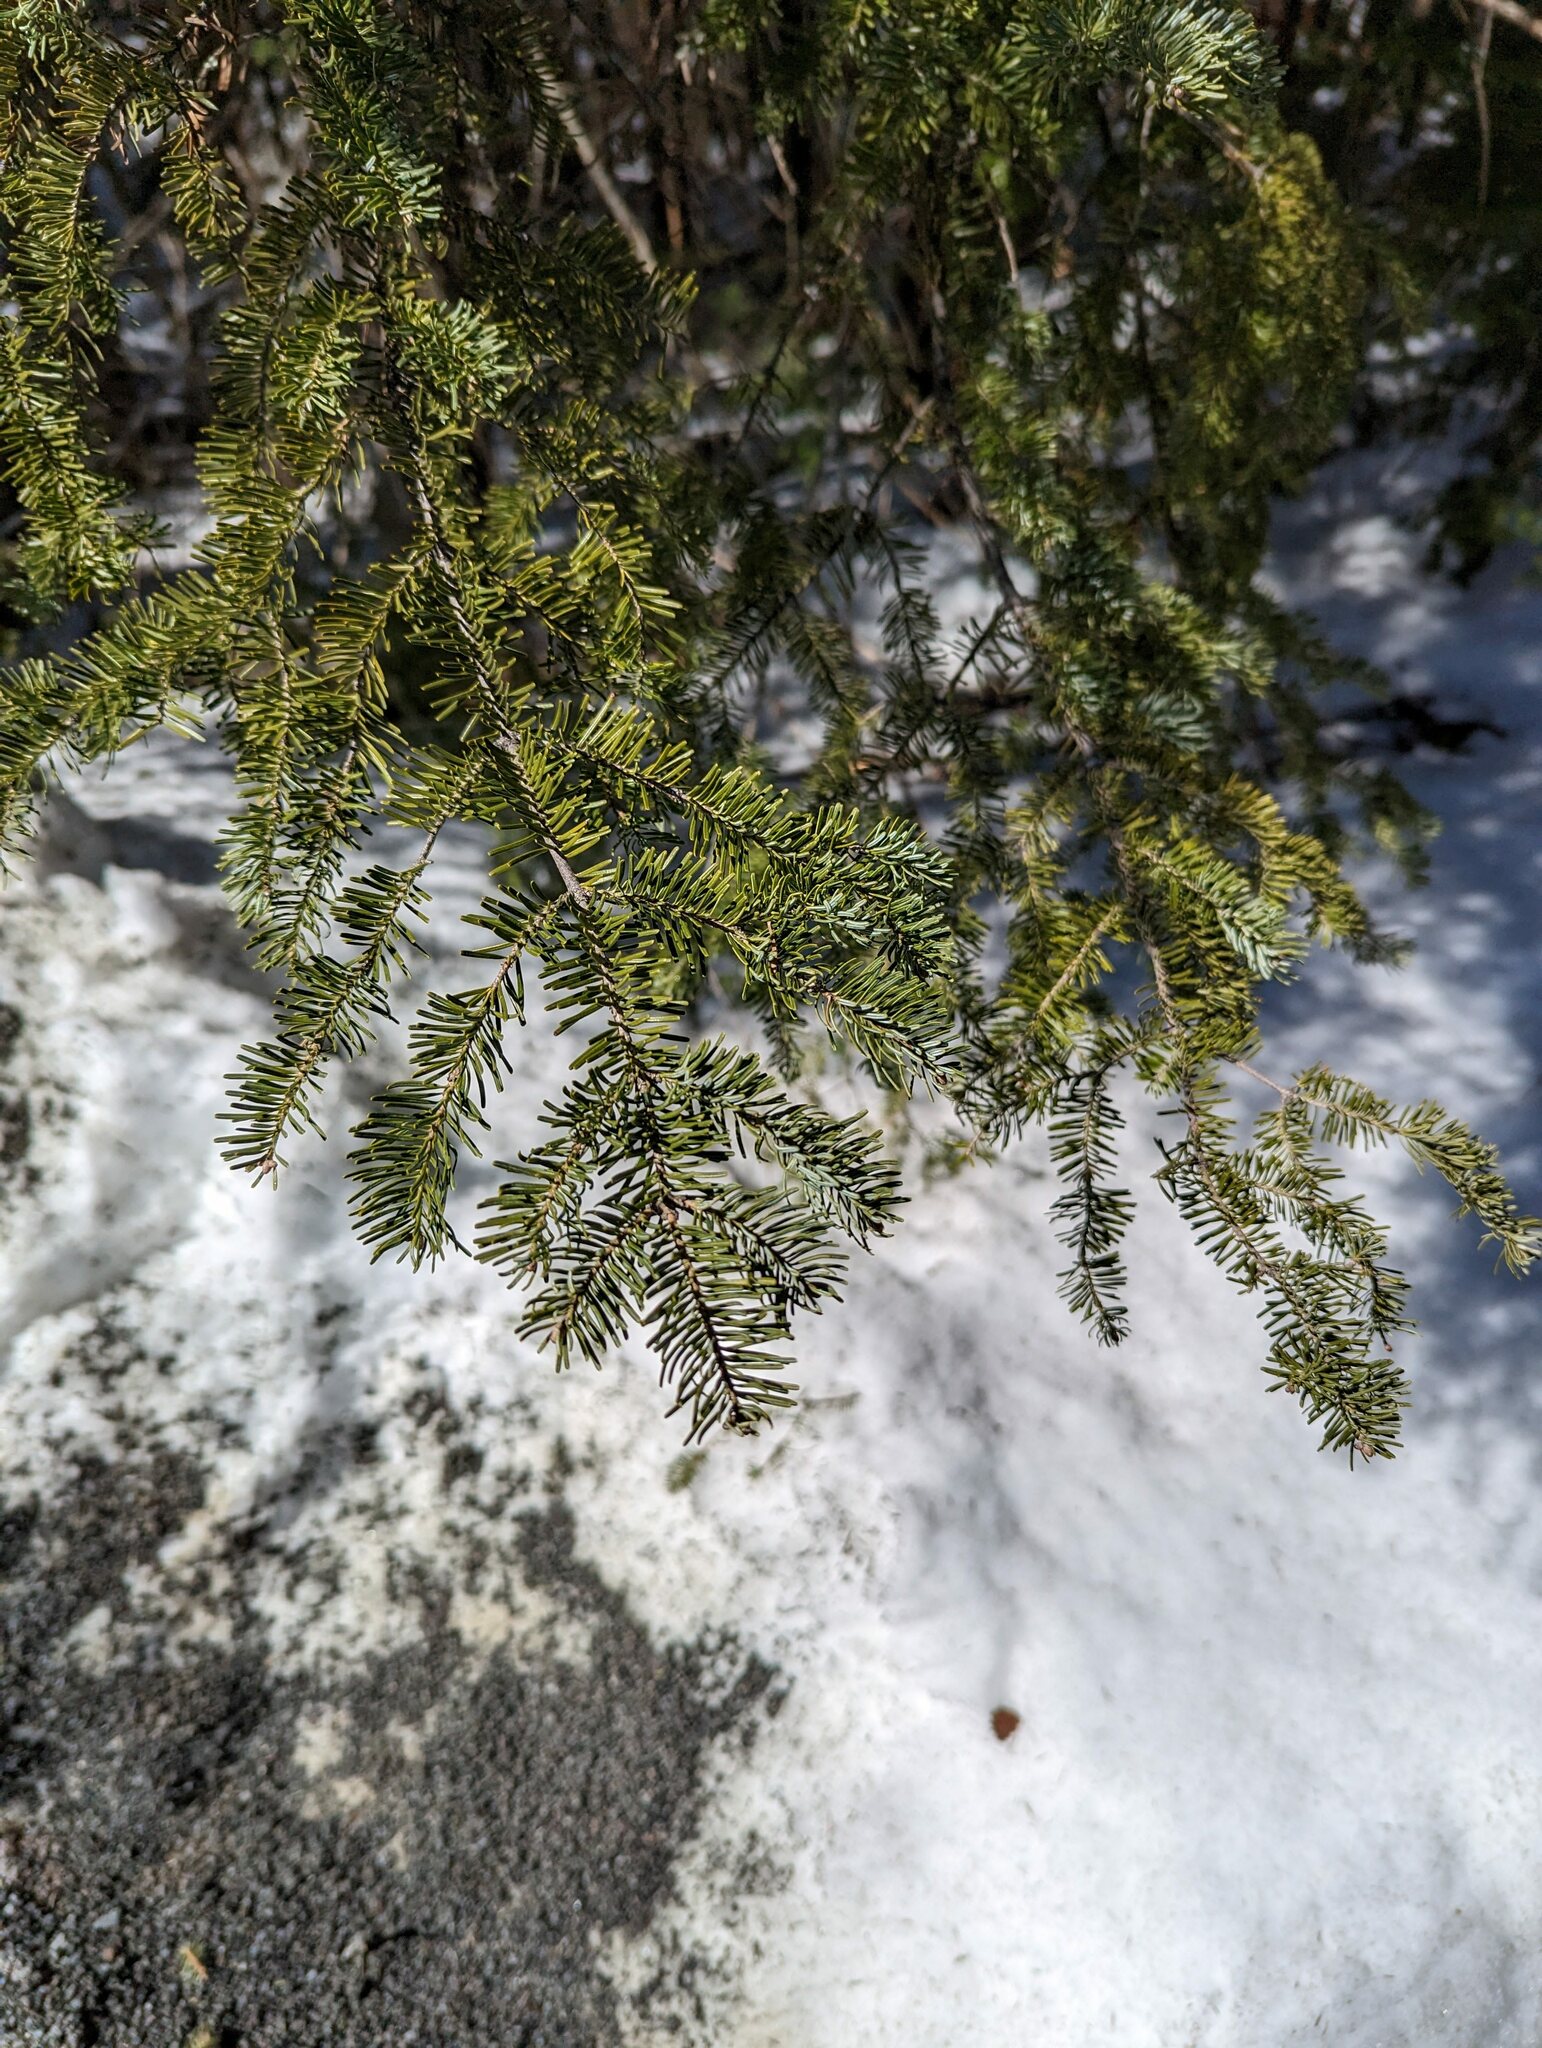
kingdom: Plantae
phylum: Tracheophyta
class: Pinopsida
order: Pinales
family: Pinaceae
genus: Abies
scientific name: Abies balsamea
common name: Balsam fir
